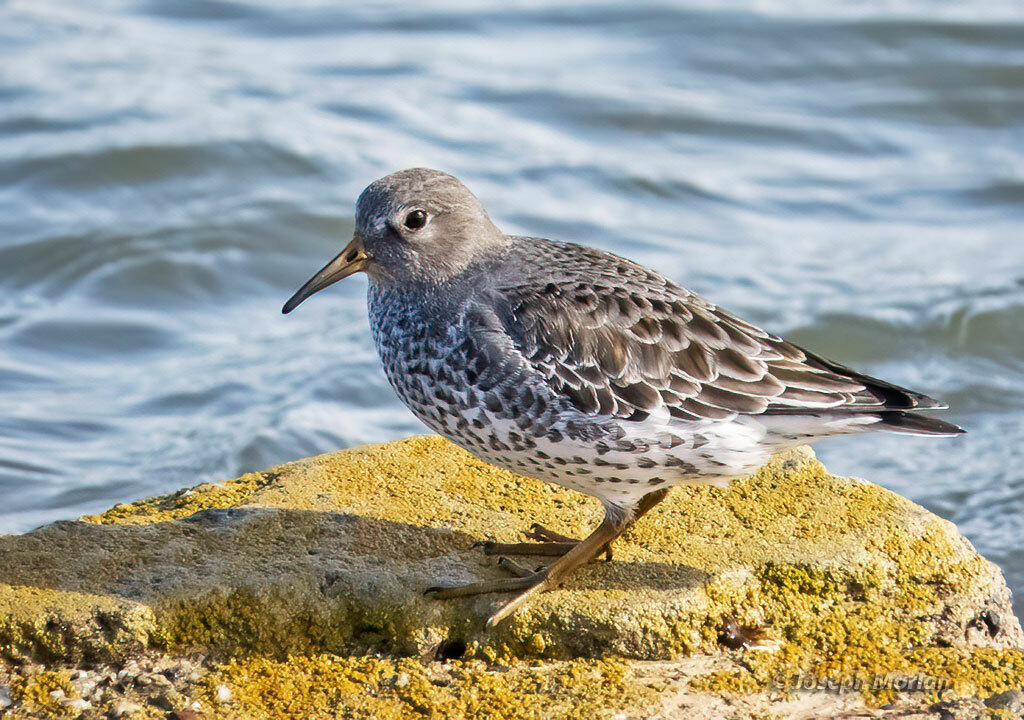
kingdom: Animalia
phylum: Chordata
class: Aves
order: Charadriiformes
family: Scolopacidae
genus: Calidris
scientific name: Calidris ptilocnemis
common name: Rock sandpiper
